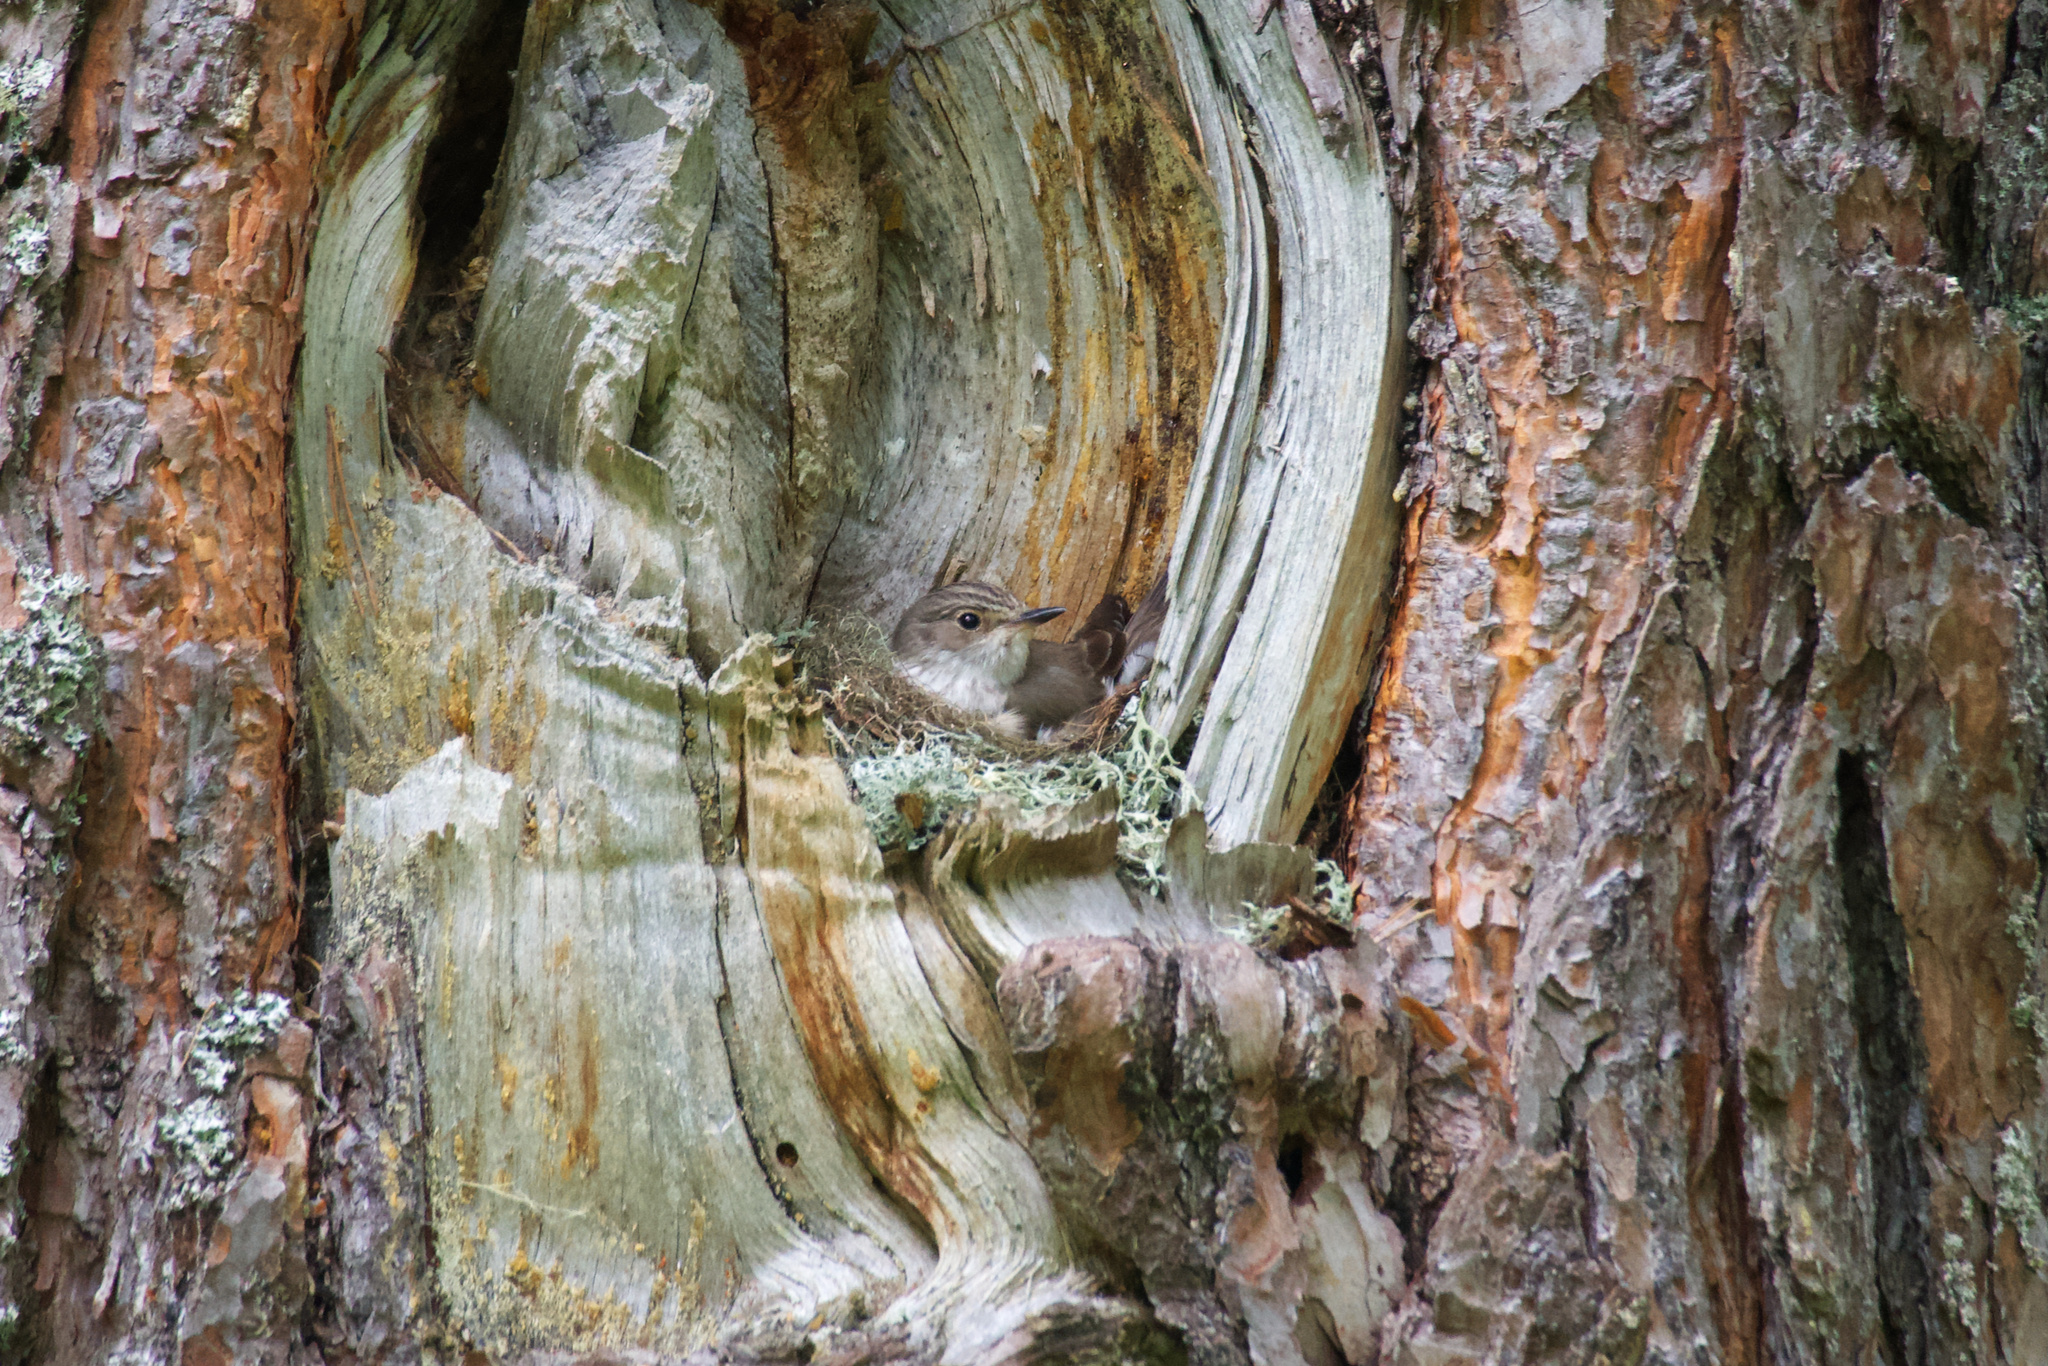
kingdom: Animalia
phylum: Chordata
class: Aves
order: Passeriformes
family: Muscicapidae
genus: Muscicapa
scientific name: Muscicapa striata
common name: Spotted flycatcher
